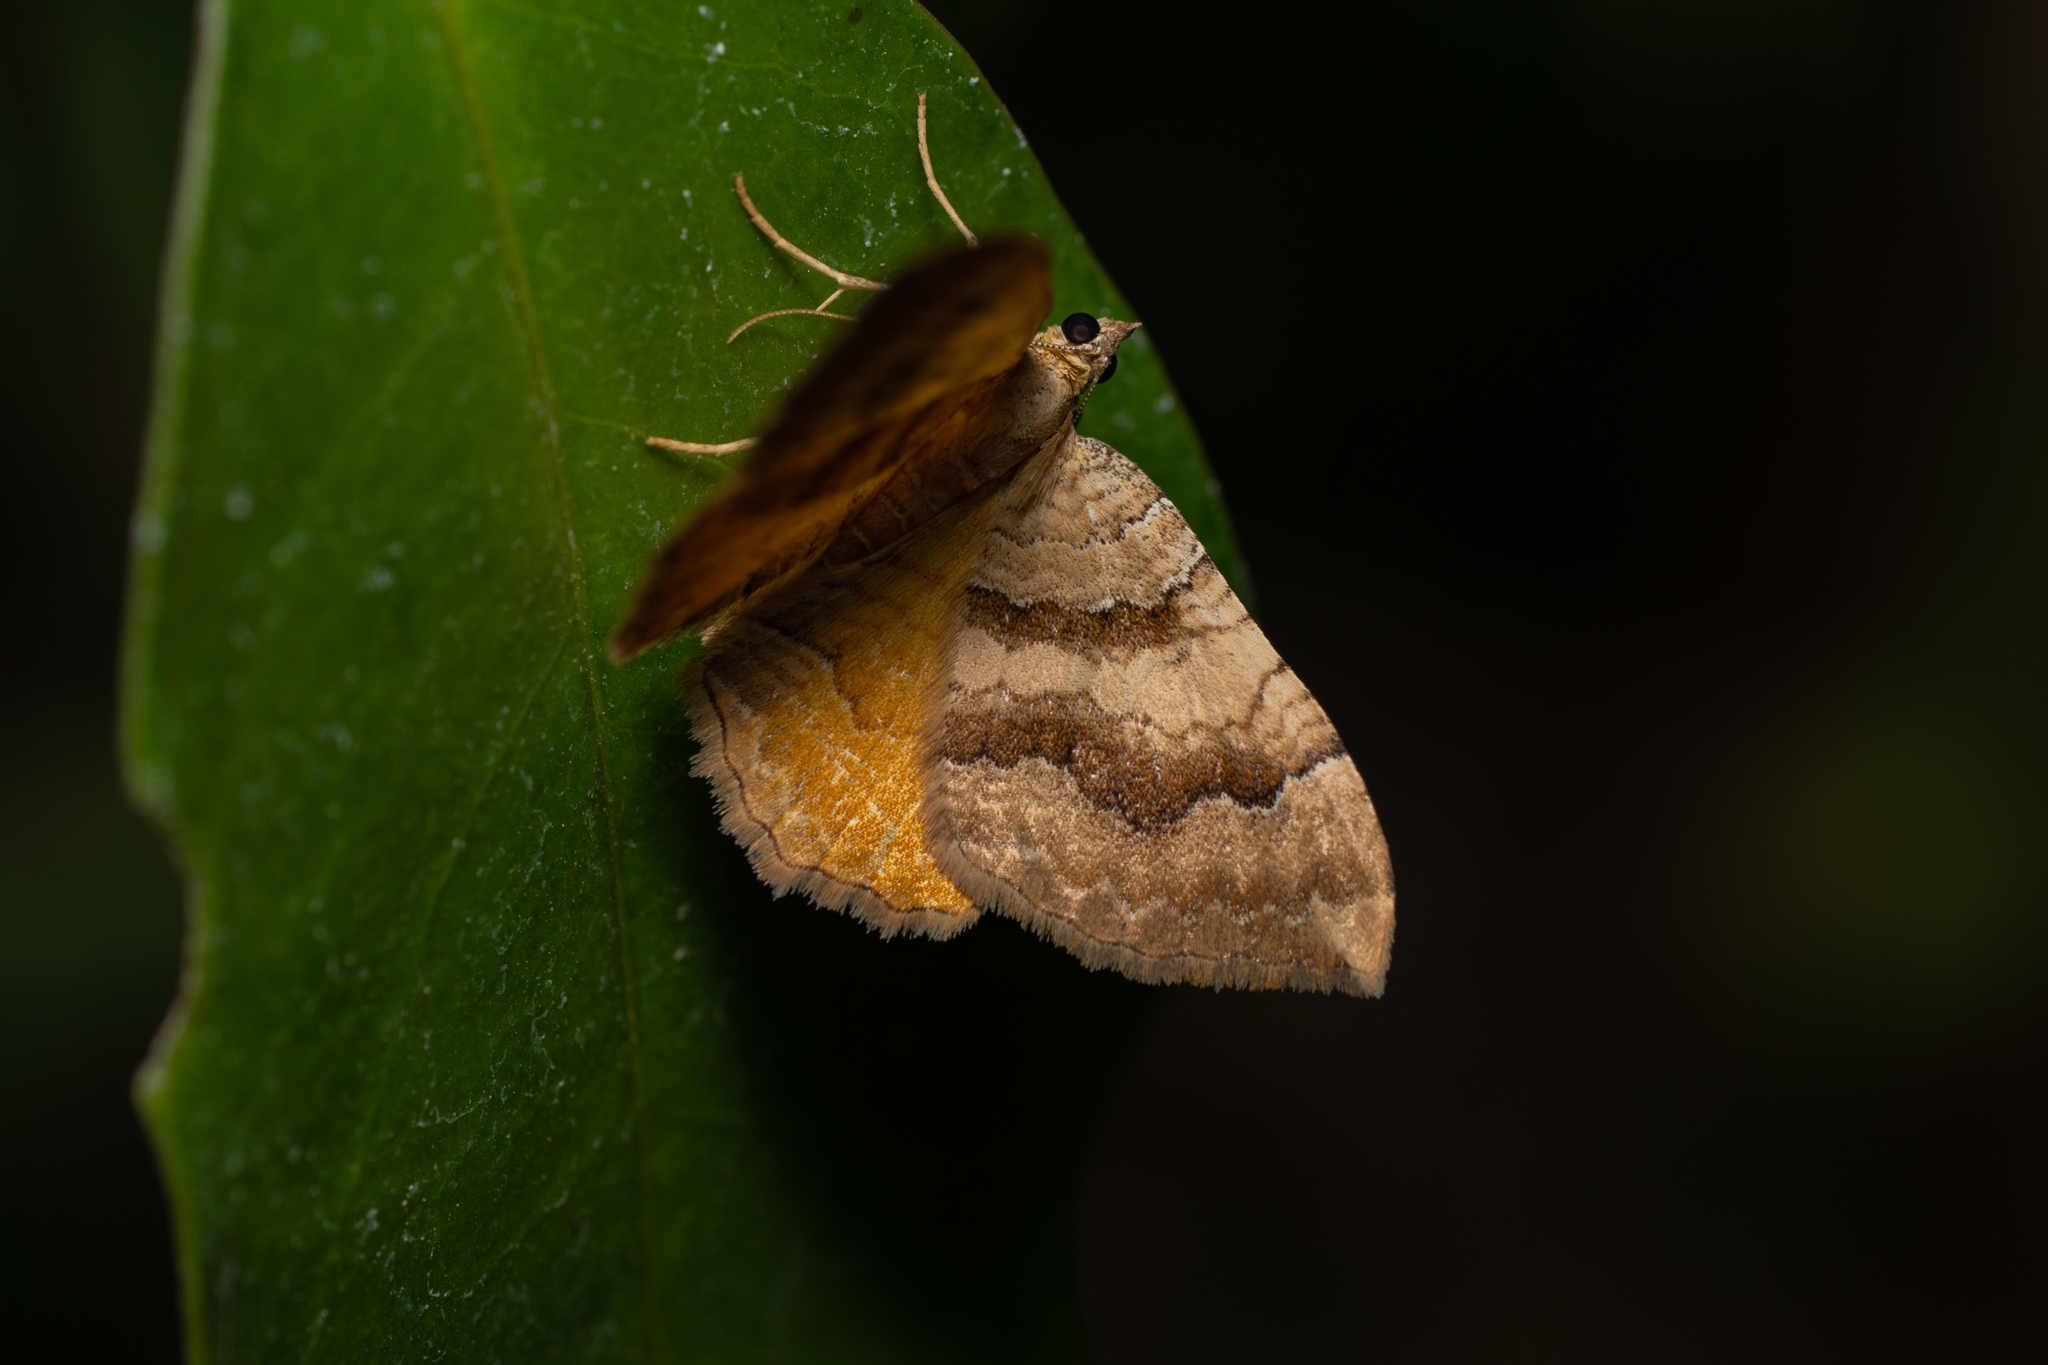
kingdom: Animalia
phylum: Arthropoda
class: Insecta
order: Lepidoptera
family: Geometridae
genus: Camptogramma
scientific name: Camptogramma bilineata
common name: Yellow shell
